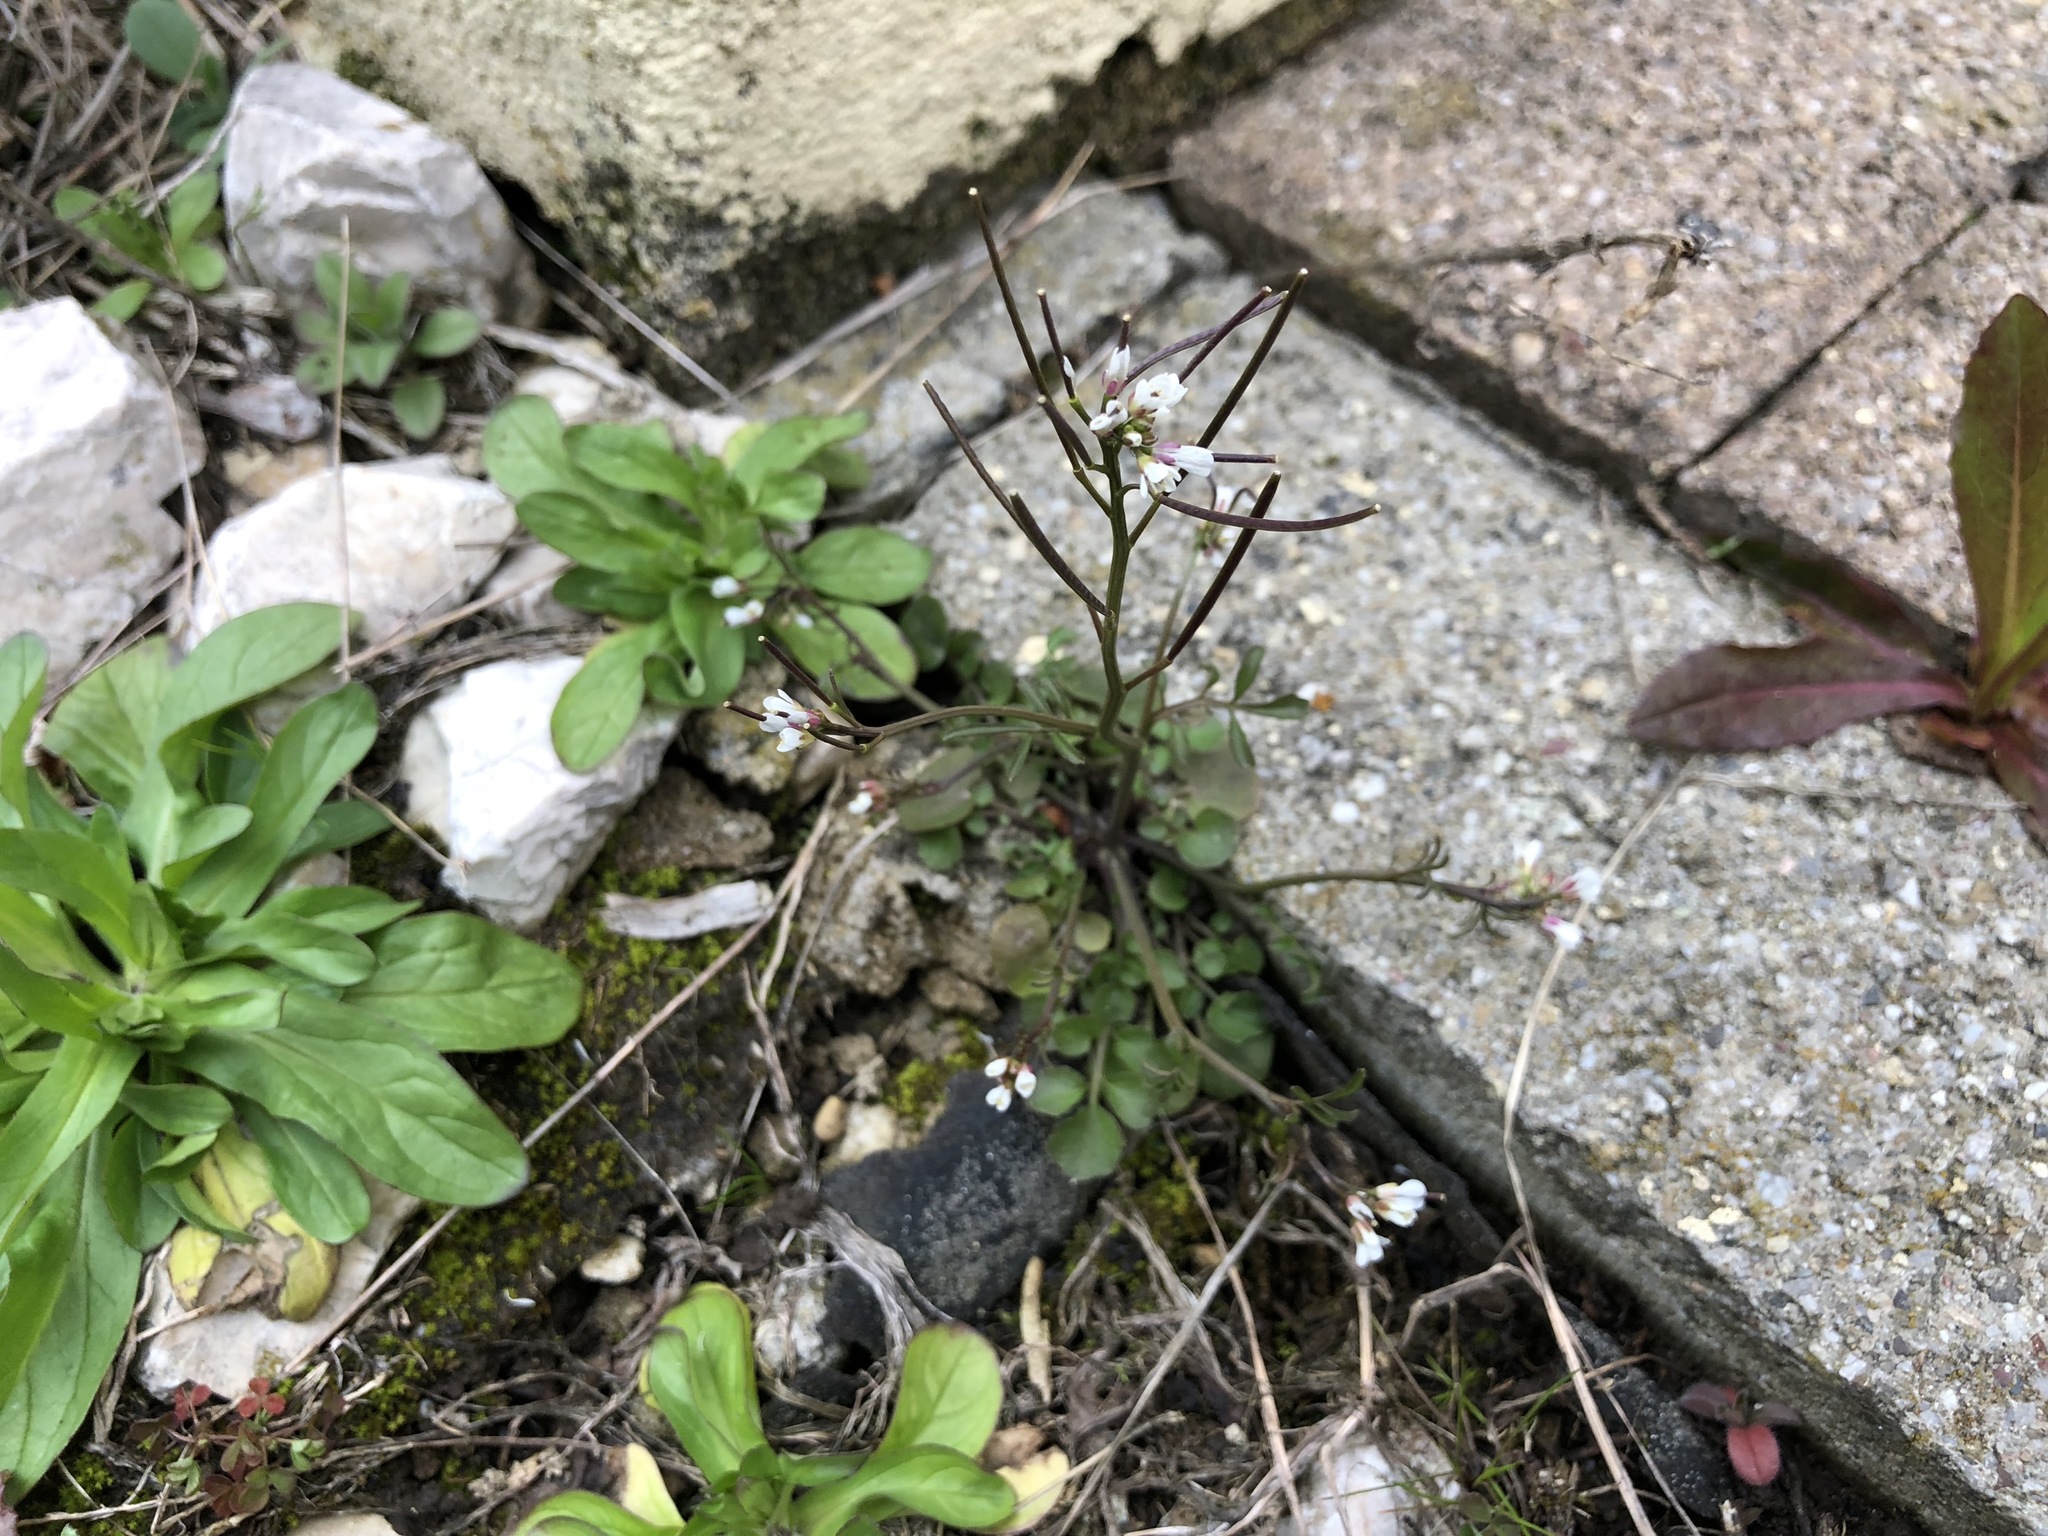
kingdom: Plantae
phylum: Tracheophyta
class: Magnoliopsida
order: Brassicales
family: Brassicaceae
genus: Cardamine
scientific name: Cardamine hirsuta
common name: Hairy bittercress
